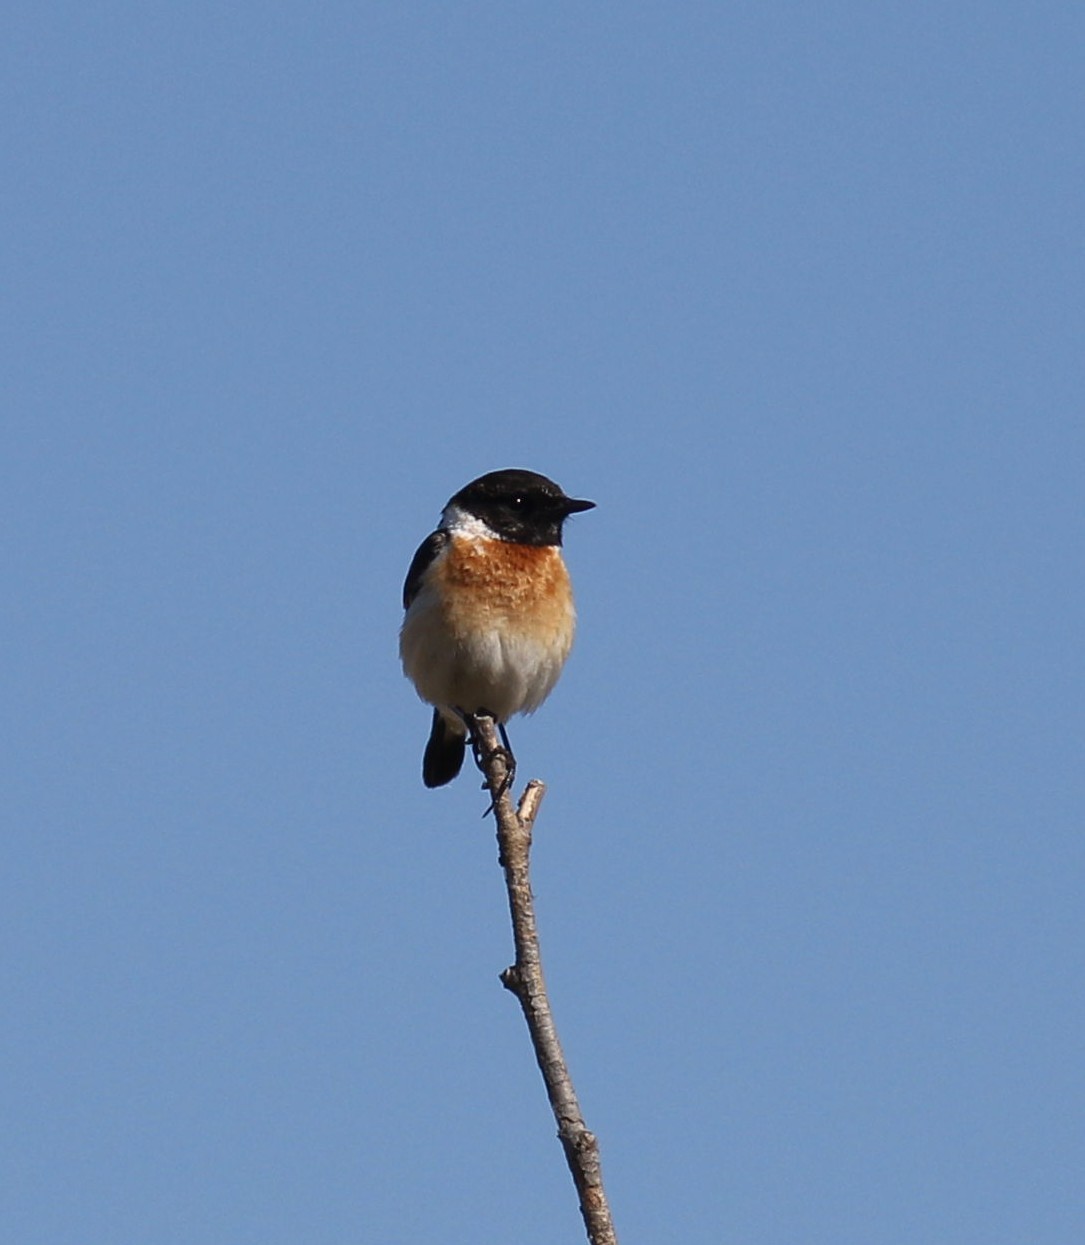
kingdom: Animalia
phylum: Chordata
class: Aves
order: Passeriformes
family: Muscicapidae
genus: Saxicola
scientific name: Saxicola rubicola
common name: European stonechat
